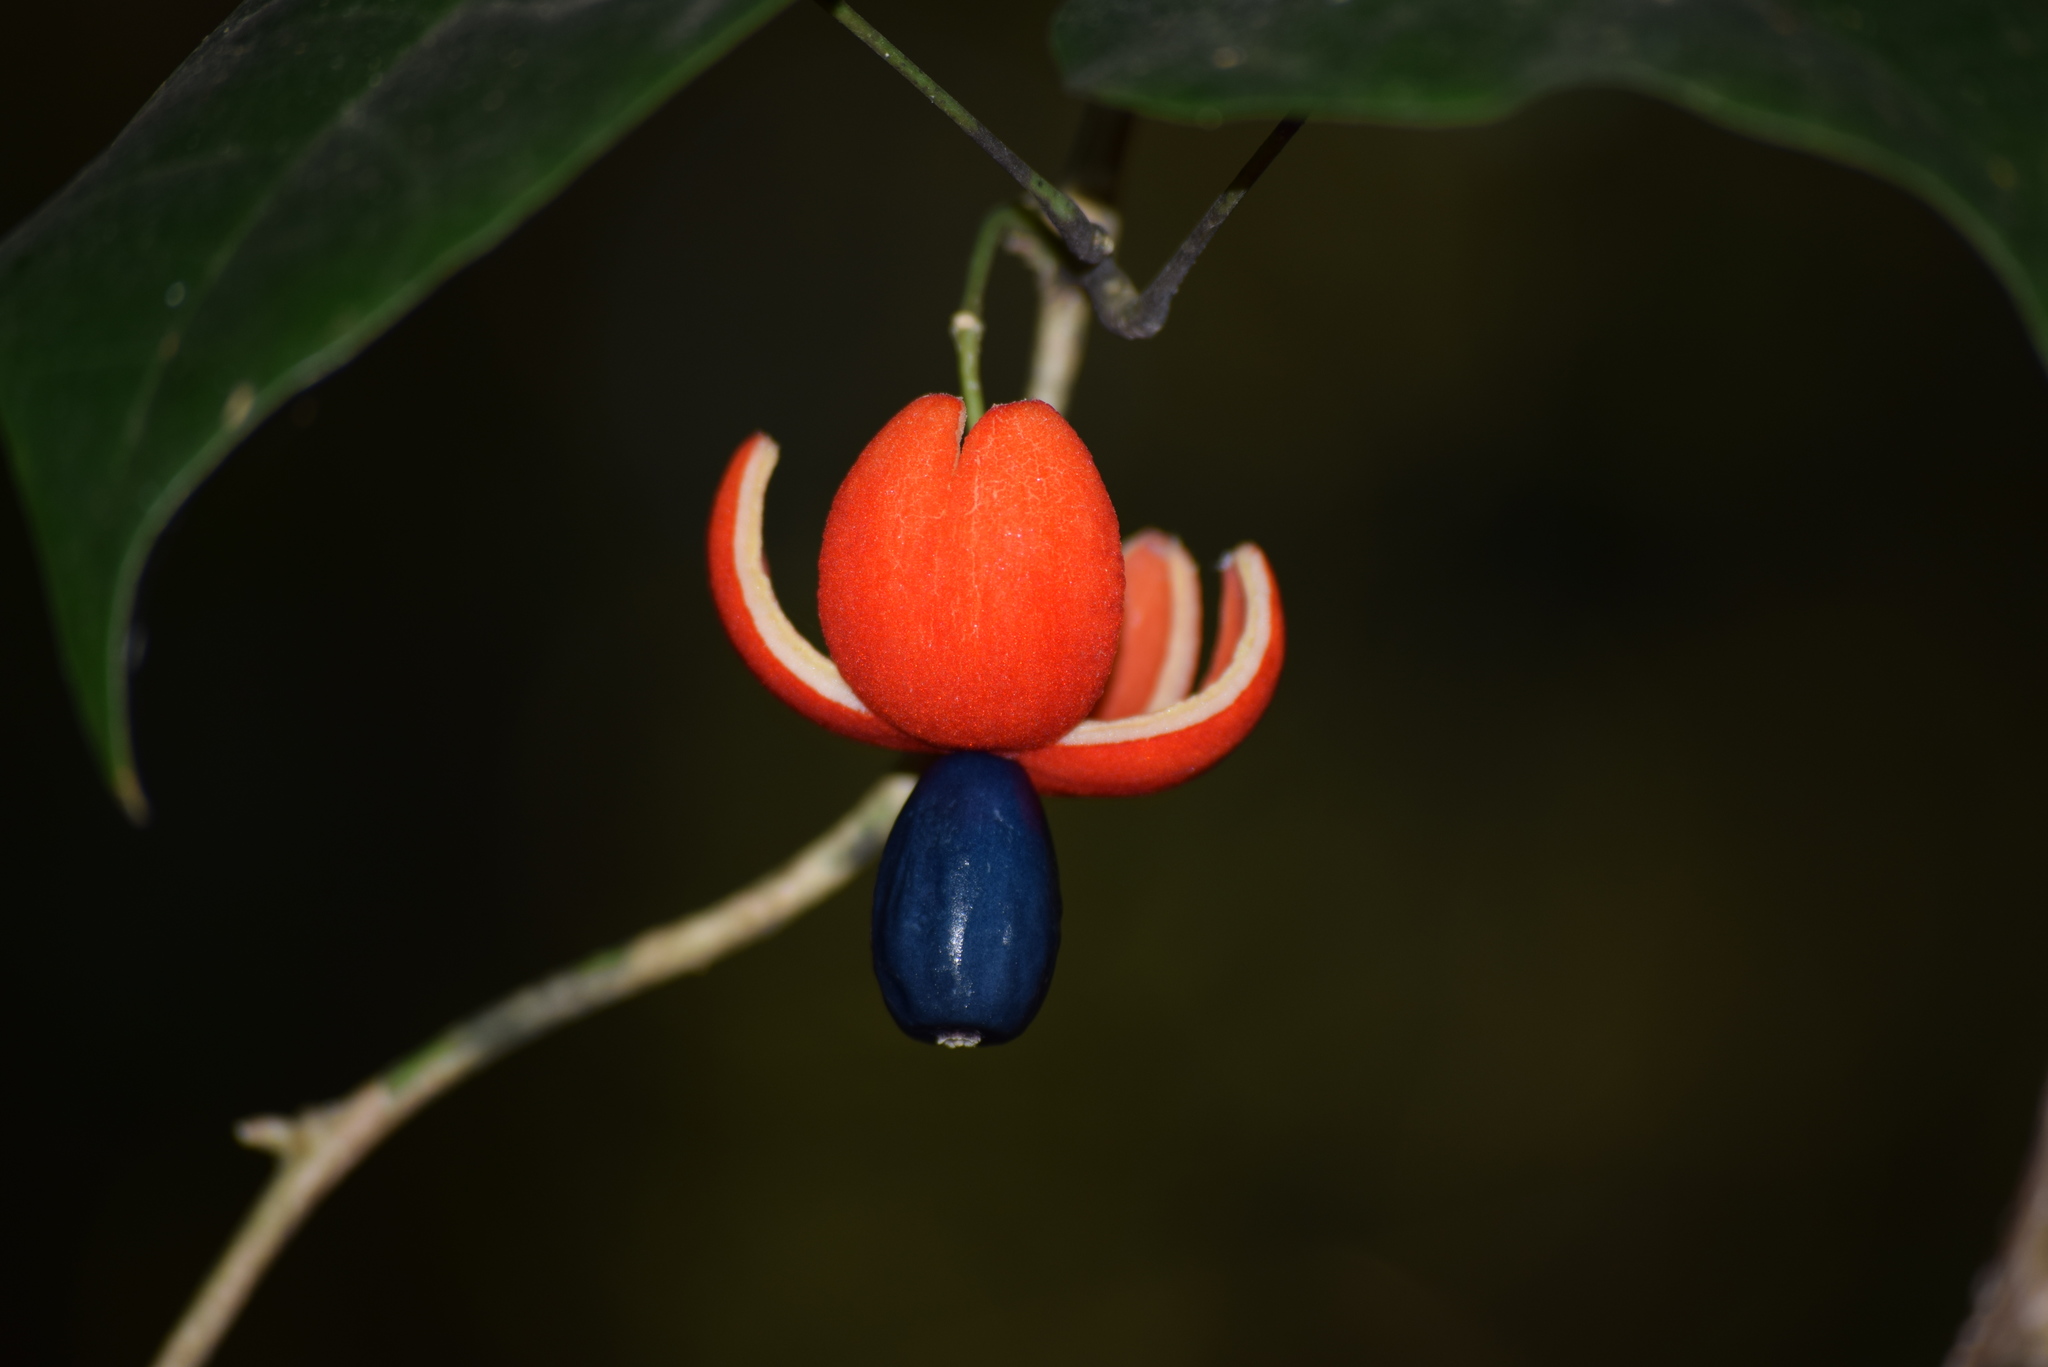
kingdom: Plantae
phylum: Tracheophyta
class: Magnoliopsida
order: Santalales
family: Erythropalaceae
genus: Erythropalum
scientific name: Erythropalum scandens
